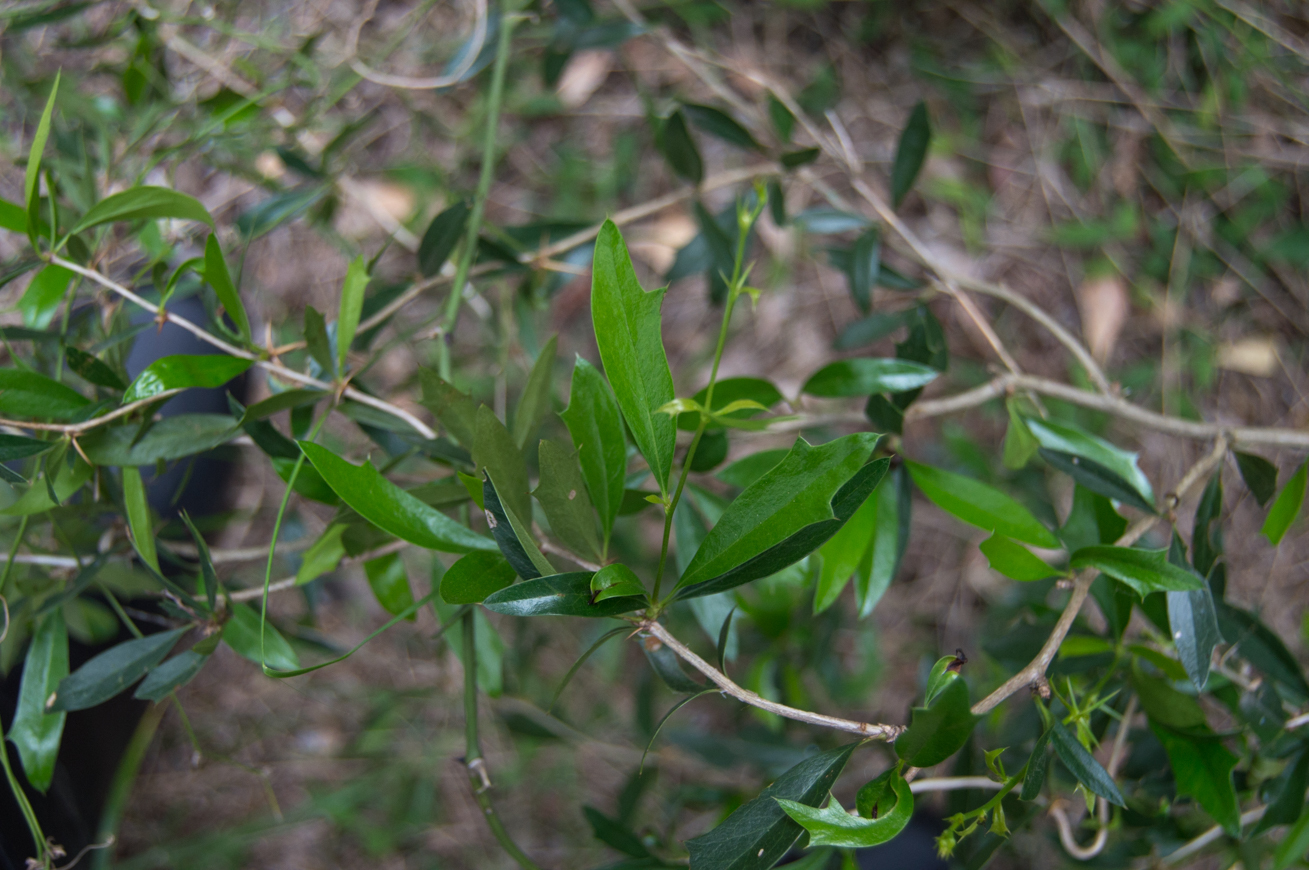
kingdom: Plantae
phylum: Tracheophyta
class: Magnoliopsida
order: Ranunculales
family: Berberidaceae
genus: Berberis
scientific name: Berberis ruscifolia
